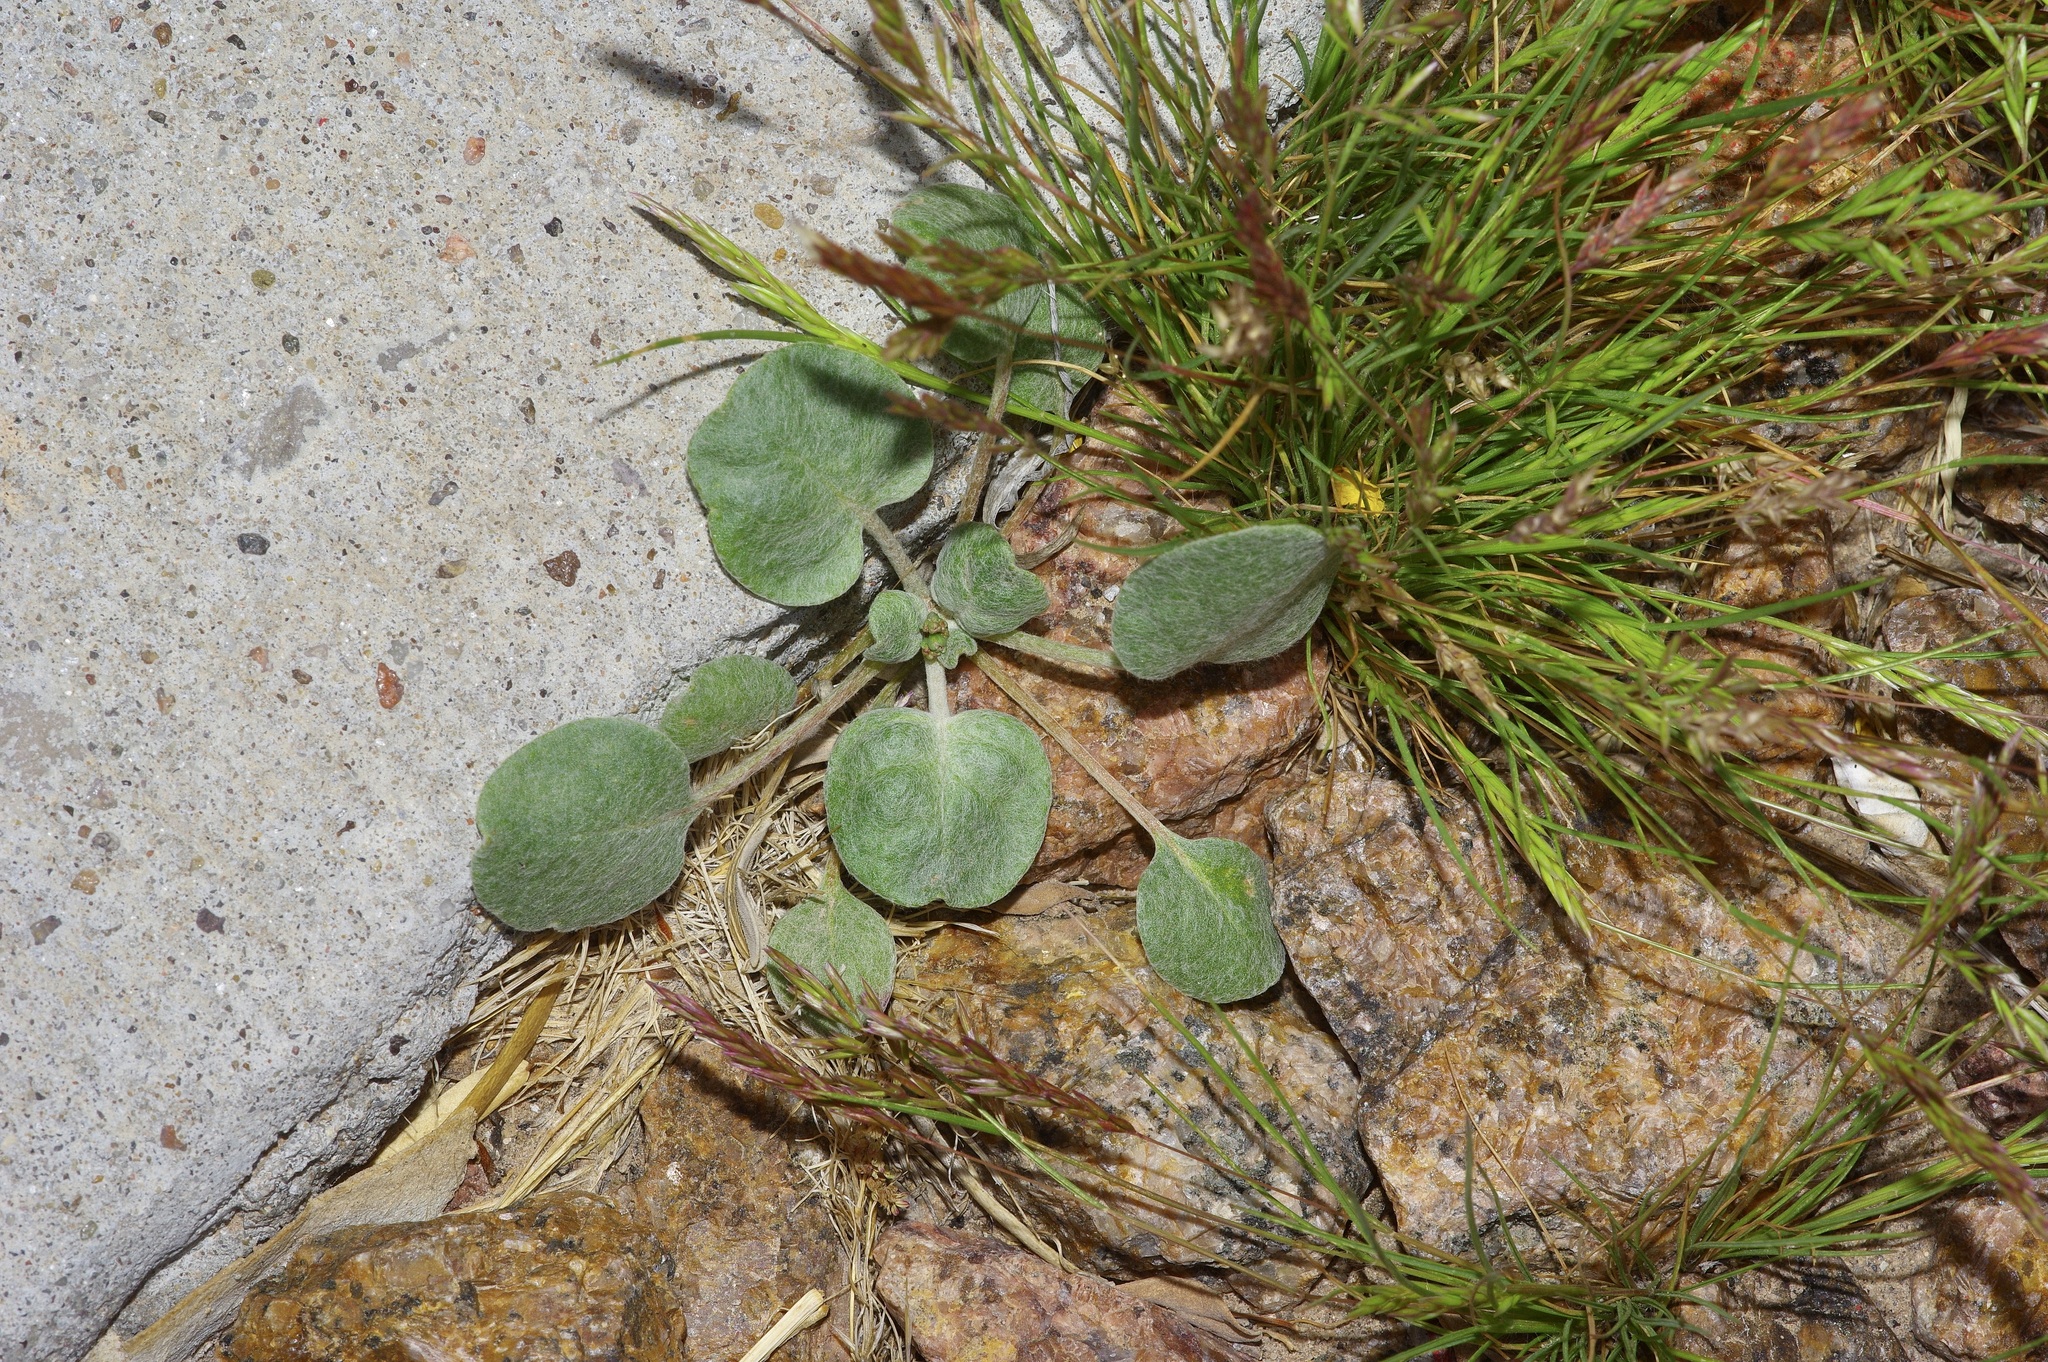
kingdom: Plantae
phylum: Tracheophyta
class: Magnoliopsida
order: Caryophyllales
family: Polygonaceae
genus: Eriogonum
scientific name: Eriogonum rotundifolium
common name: Round-leaf wild buckwheat
